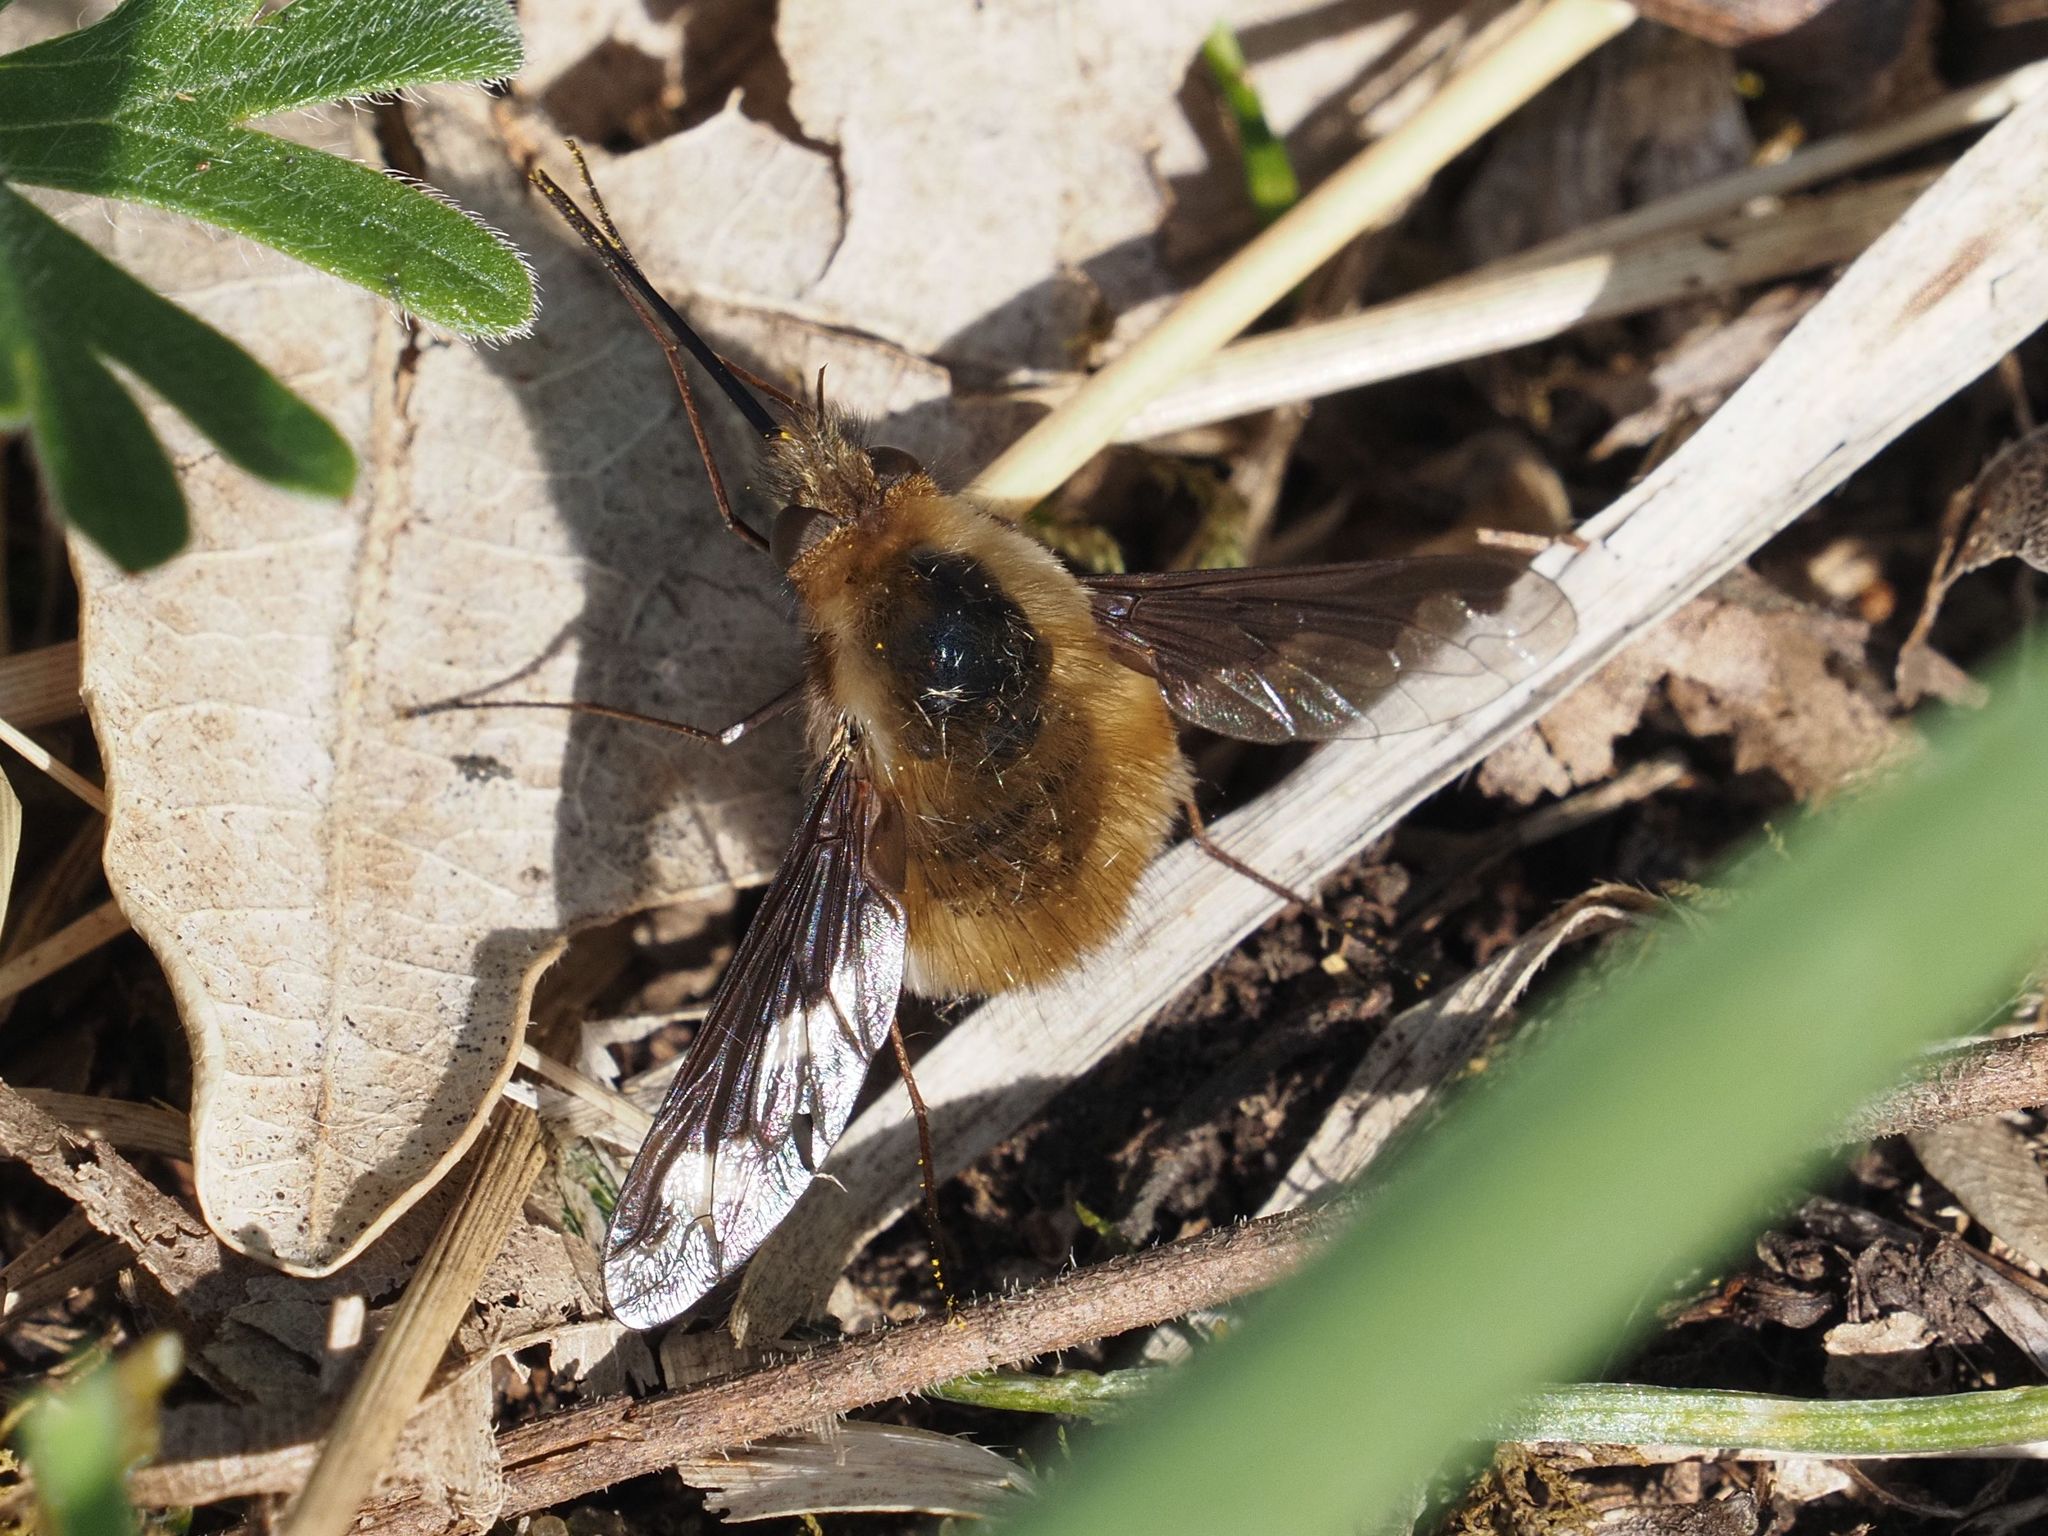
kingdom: Animalia
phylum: Arthropoda
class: Insecta
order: Diptera
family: Bombyliidae
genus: Bombylius
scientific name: Bombylius major
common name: Bee fly
